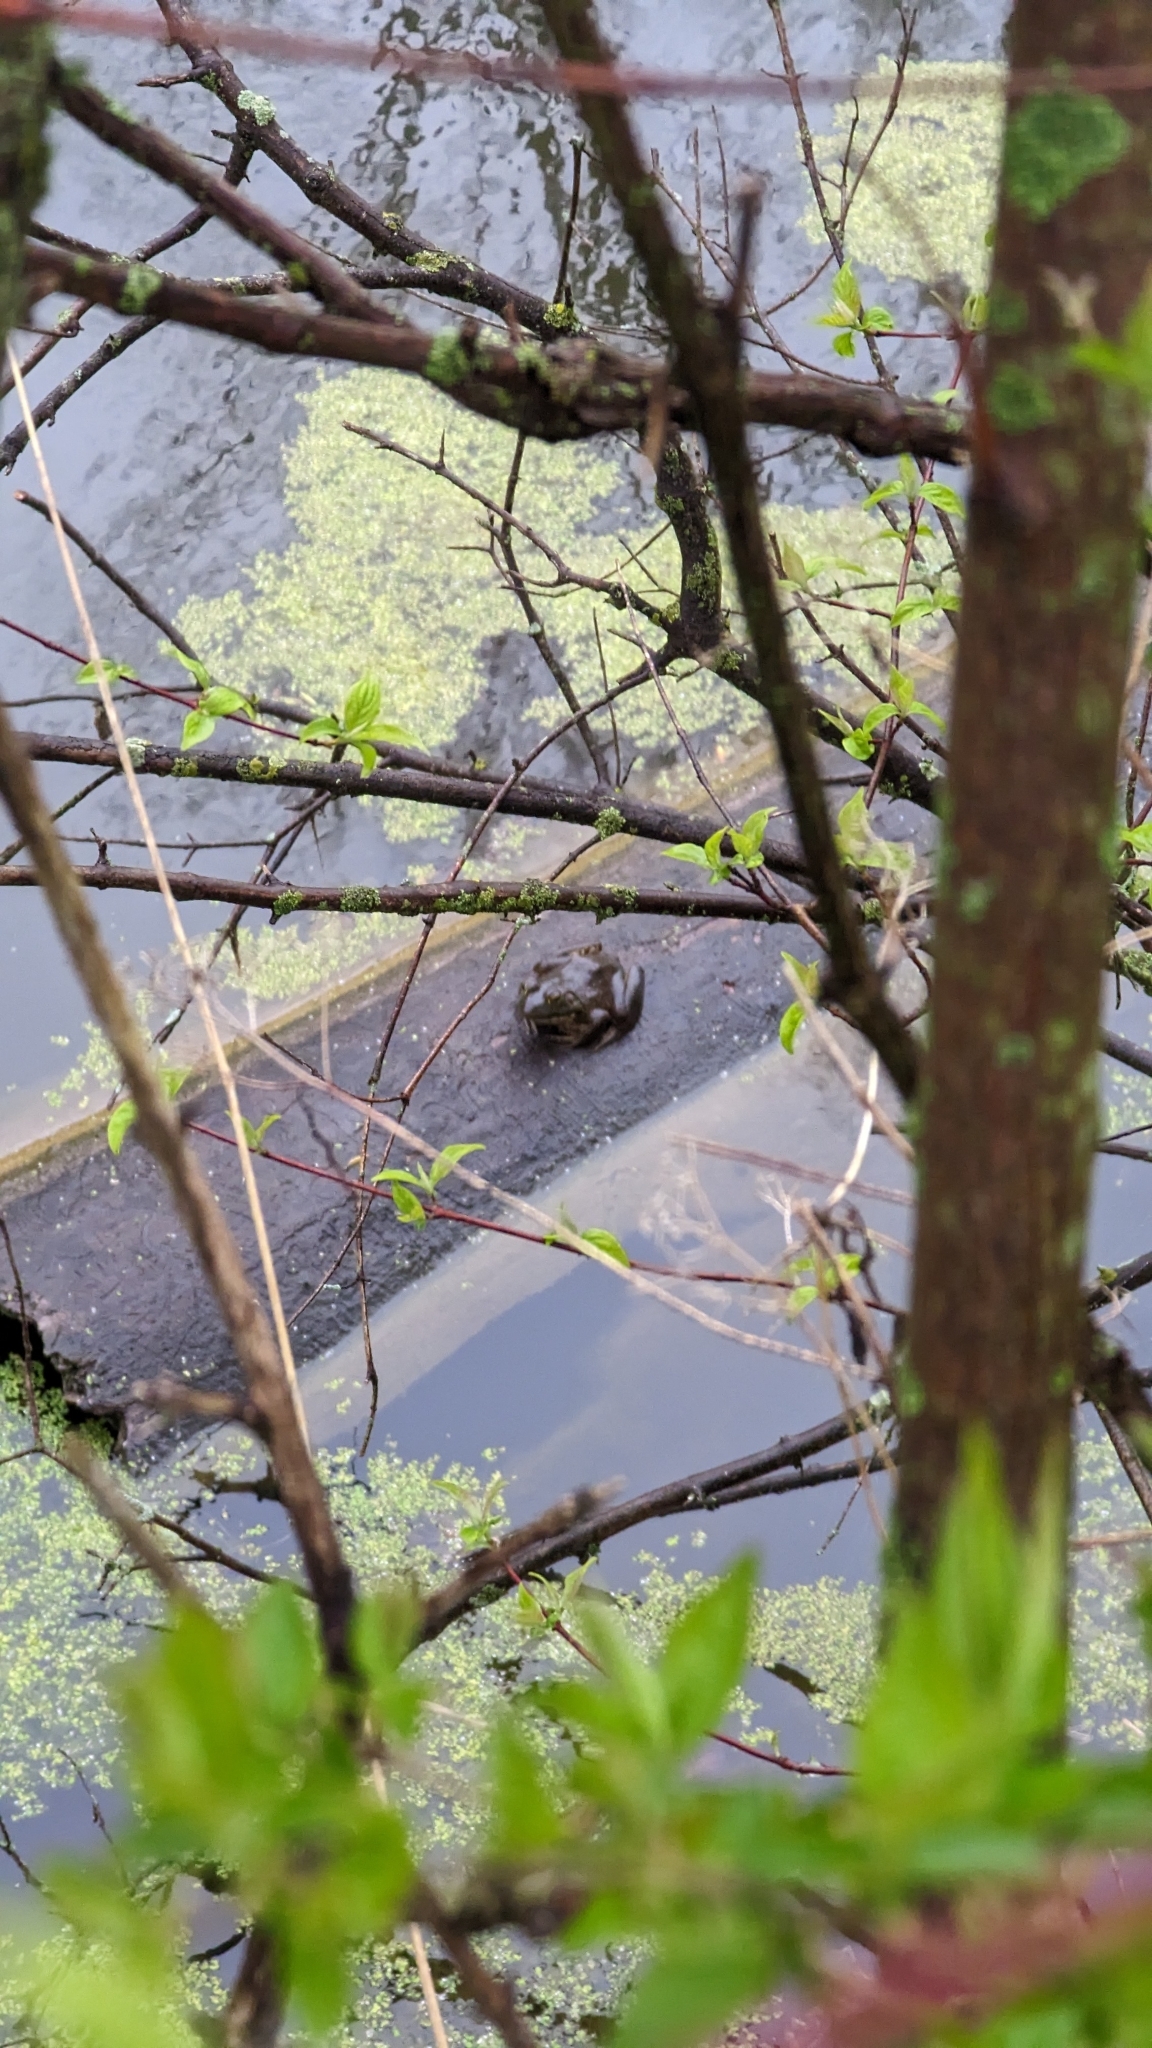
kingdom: Animalia
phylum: Chordata
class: Amphibia
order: Anura
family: Ranidae
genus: Lithobates
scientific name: Lithobates catesbeianus
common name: American bullfrog
